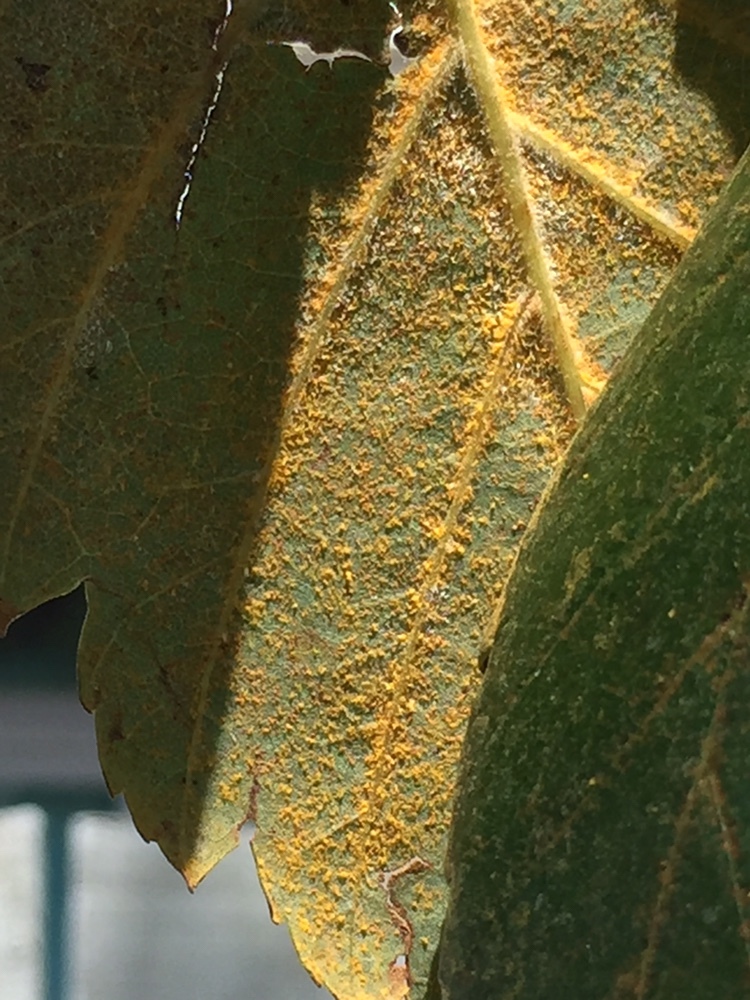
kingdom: Fungi
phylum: Basidiomycota
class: Pucciniomycetes
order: Pucciniales
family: Pucciniastraceae
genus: Melampsoridium
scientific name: Melampsoridium betulinum
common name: Birch rust
